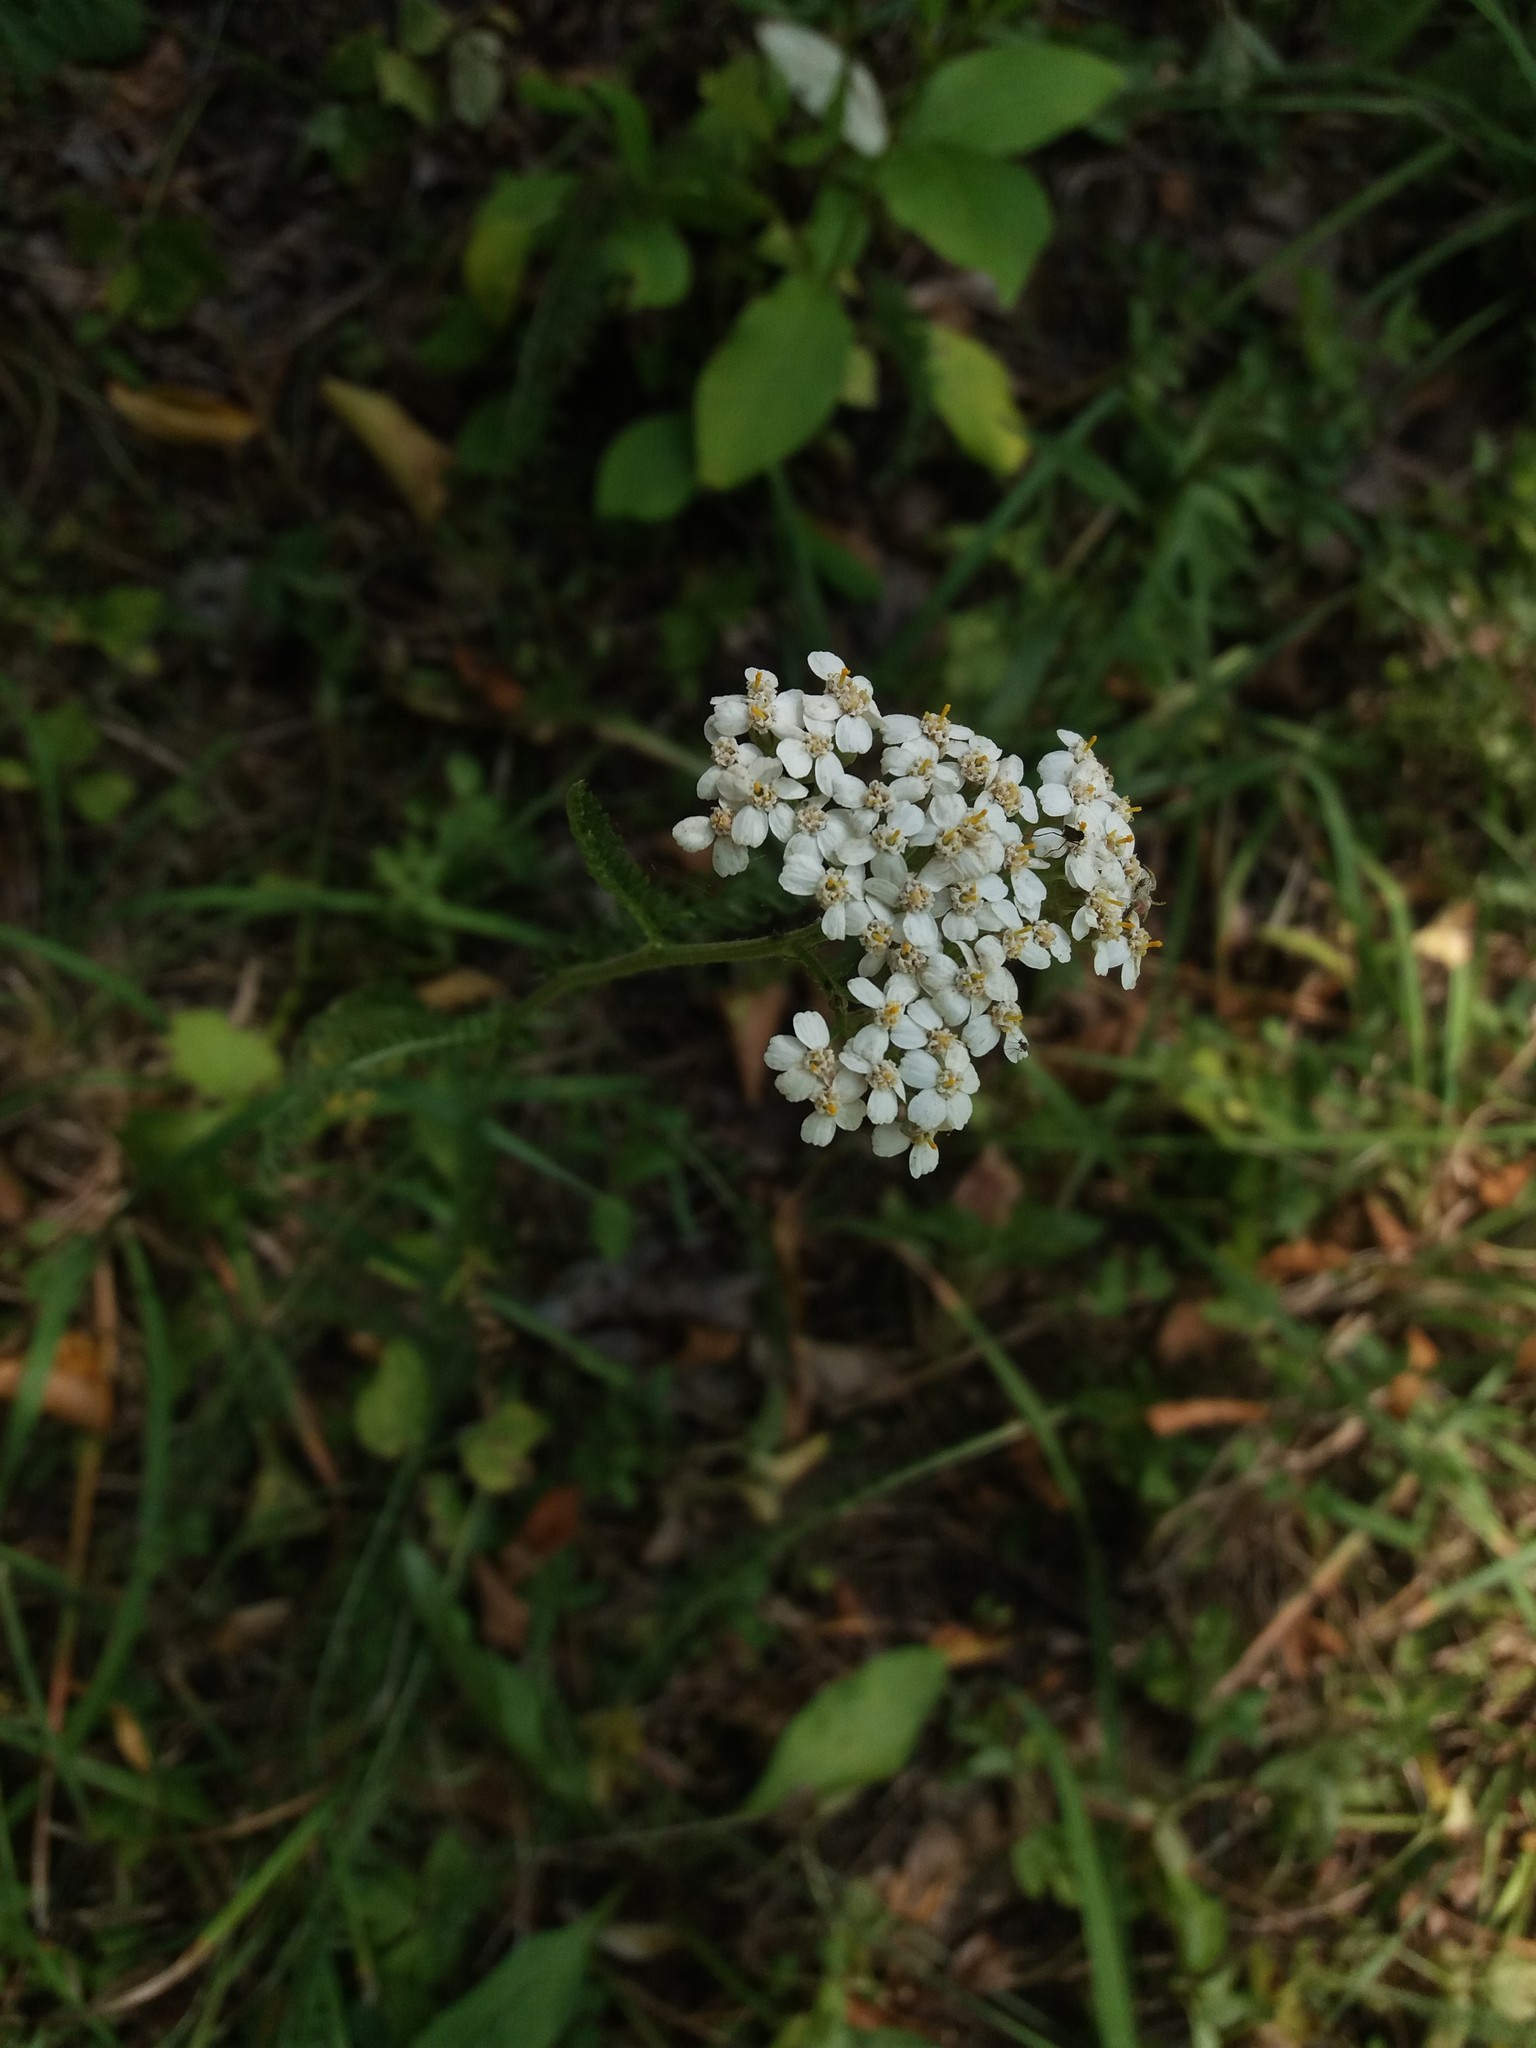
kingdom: Plantae
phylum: Tracheophyta
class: Magnoliopsida
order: Asterales
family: Asteraceae
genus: Achillea
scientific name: Achillea millefolium
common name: Yarrow
